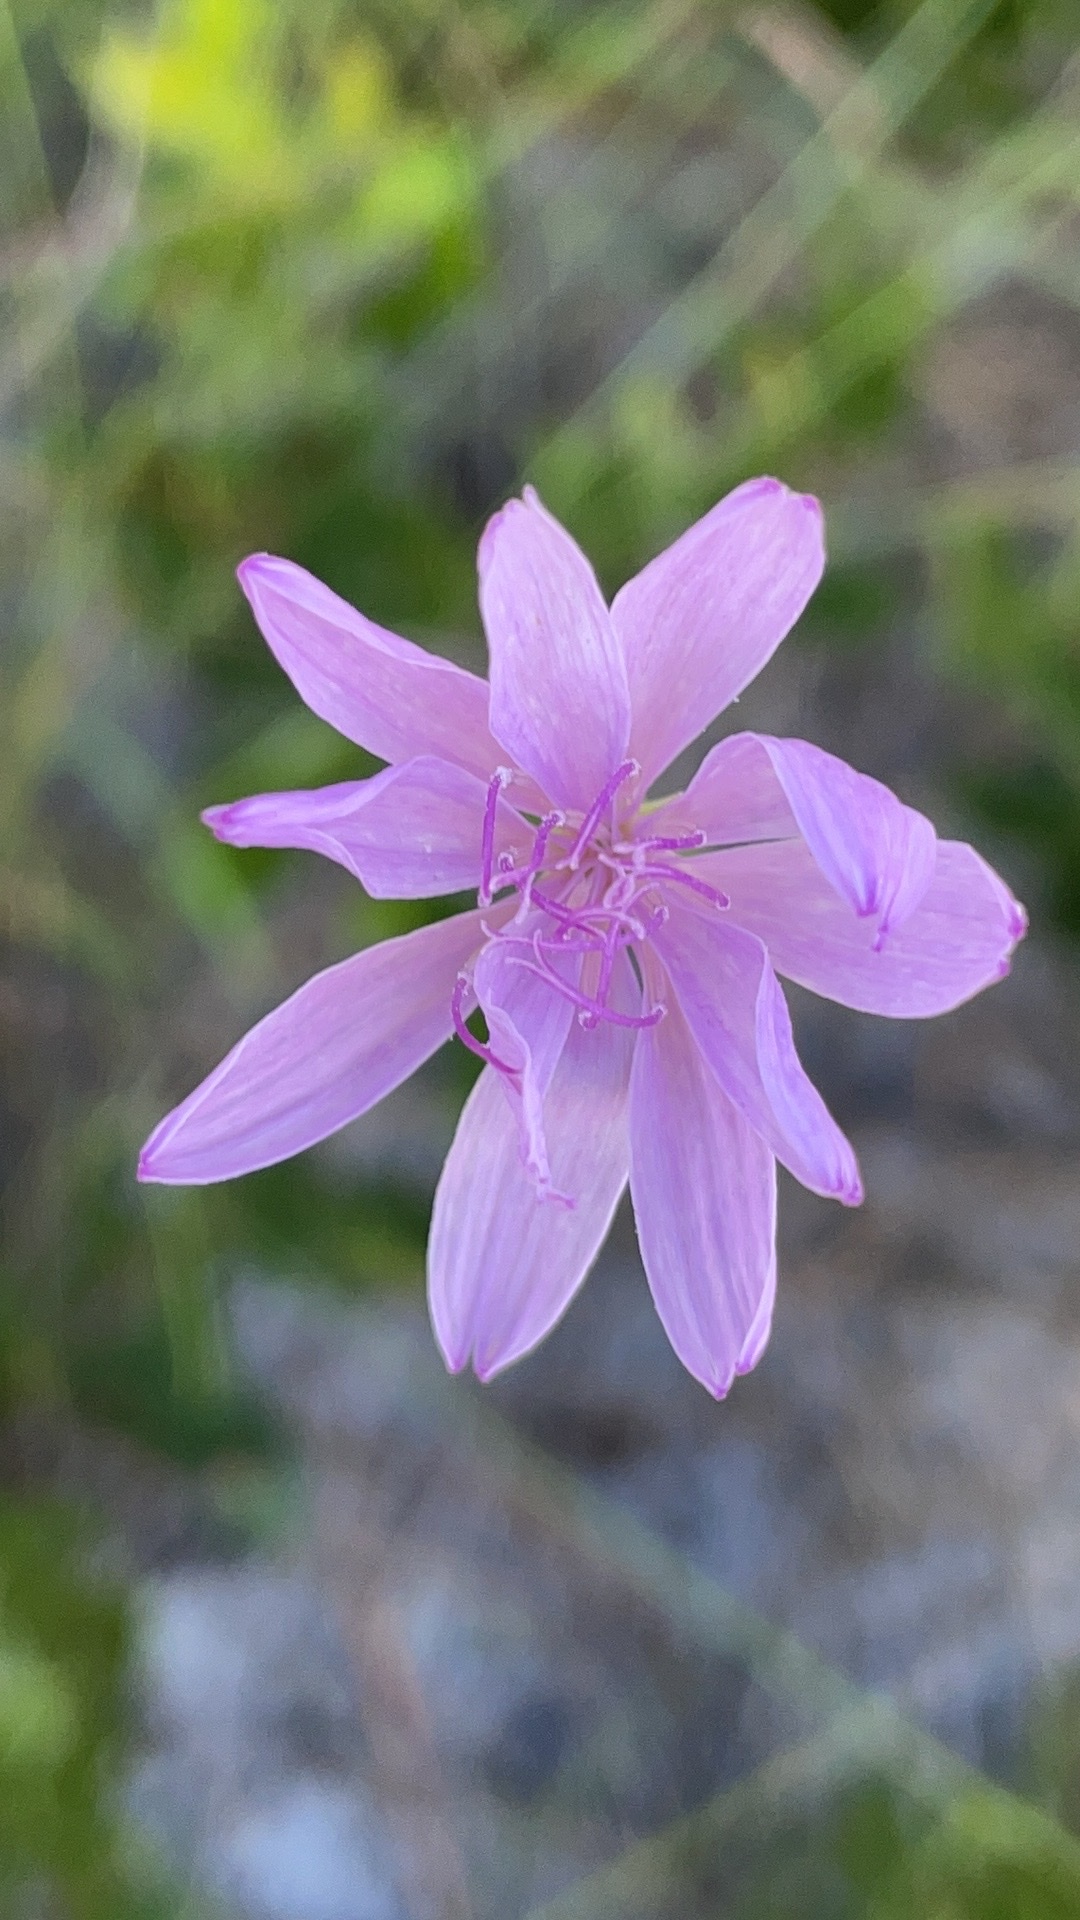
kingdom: Plantae
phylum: Tracheophyta
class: Magnoliopsida
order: Asterales
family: Asteraceae
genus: Lygodesmia
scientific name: Lygodesmia aphylla
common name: Rose-rush
